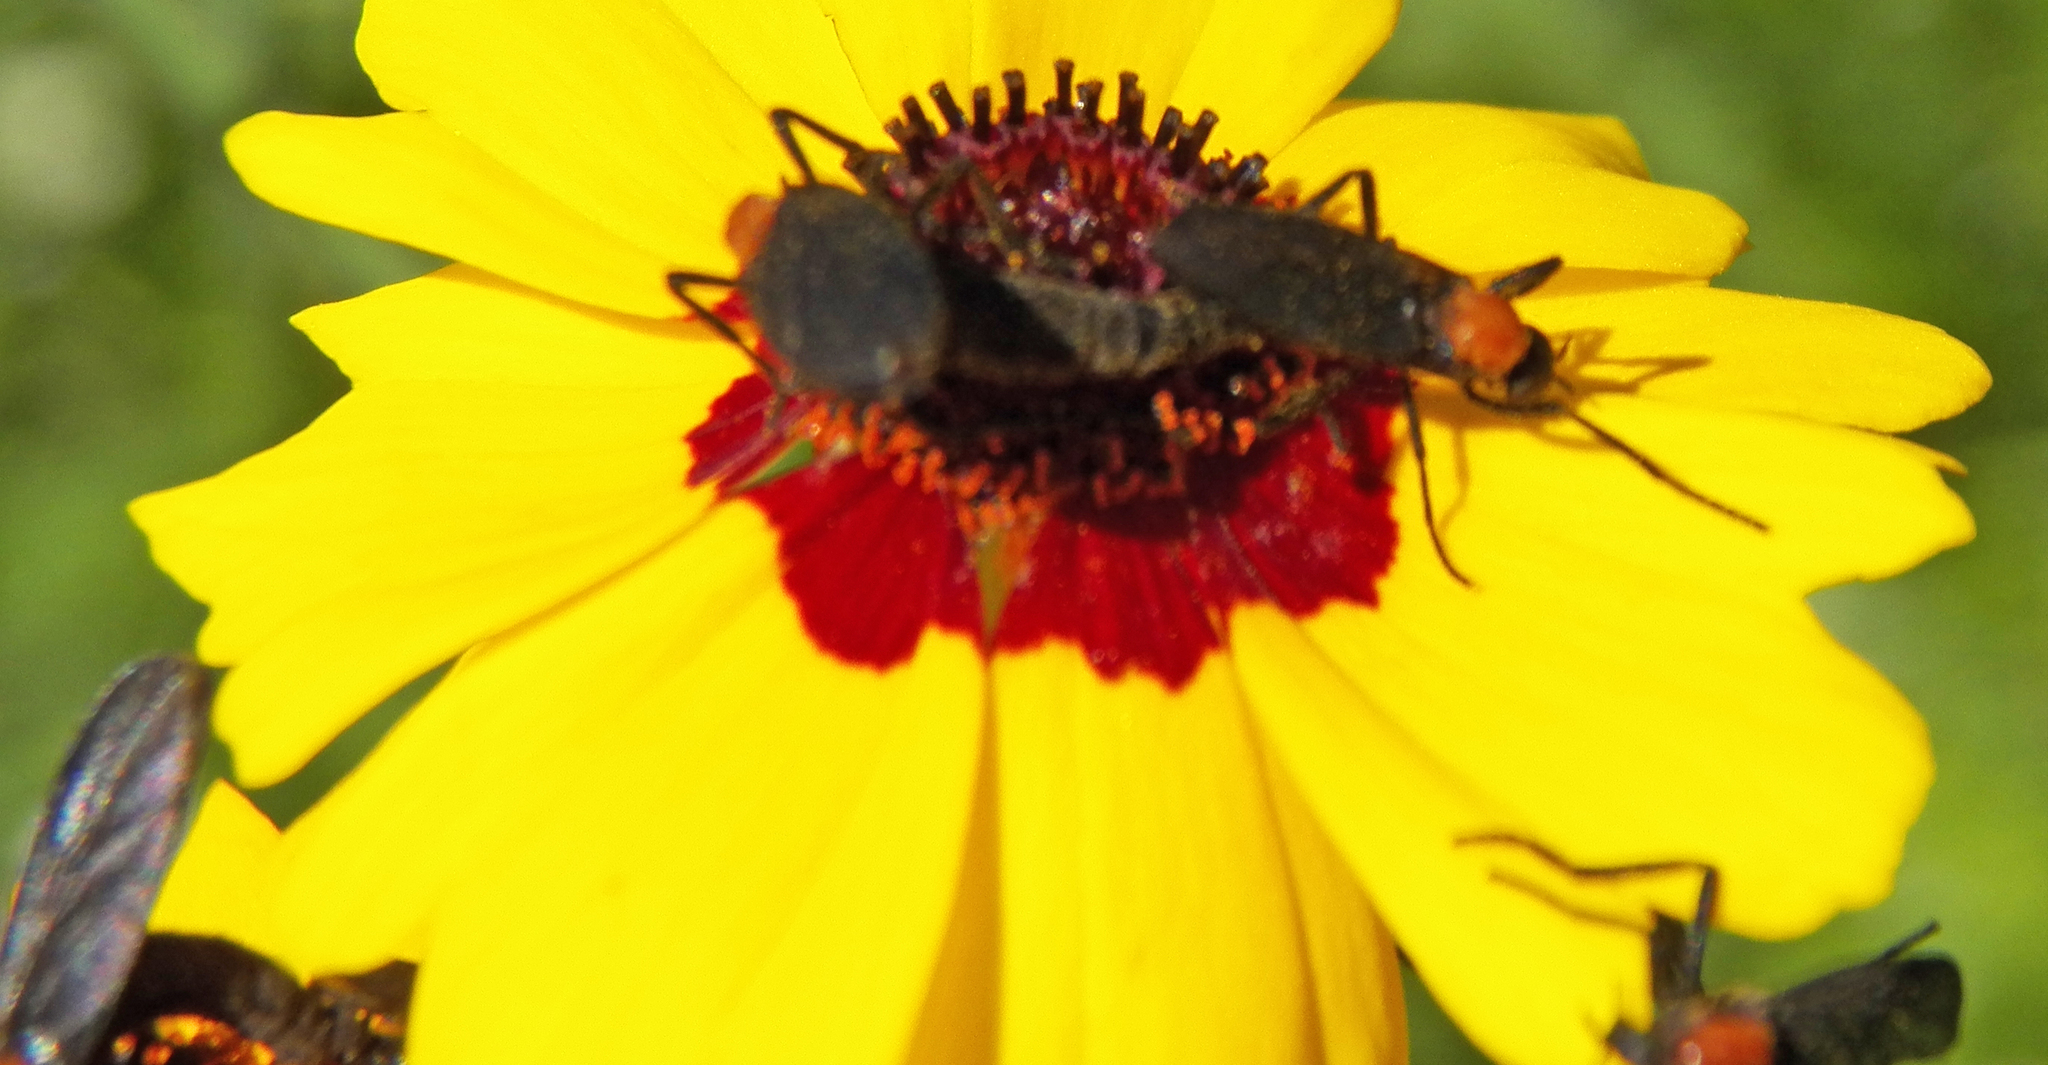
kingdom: Animalia
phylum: Arthropoda
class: Insecta
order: Diptera
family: Bibionidae
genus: Plecia
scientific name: Plecia nearctica
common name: March fly
